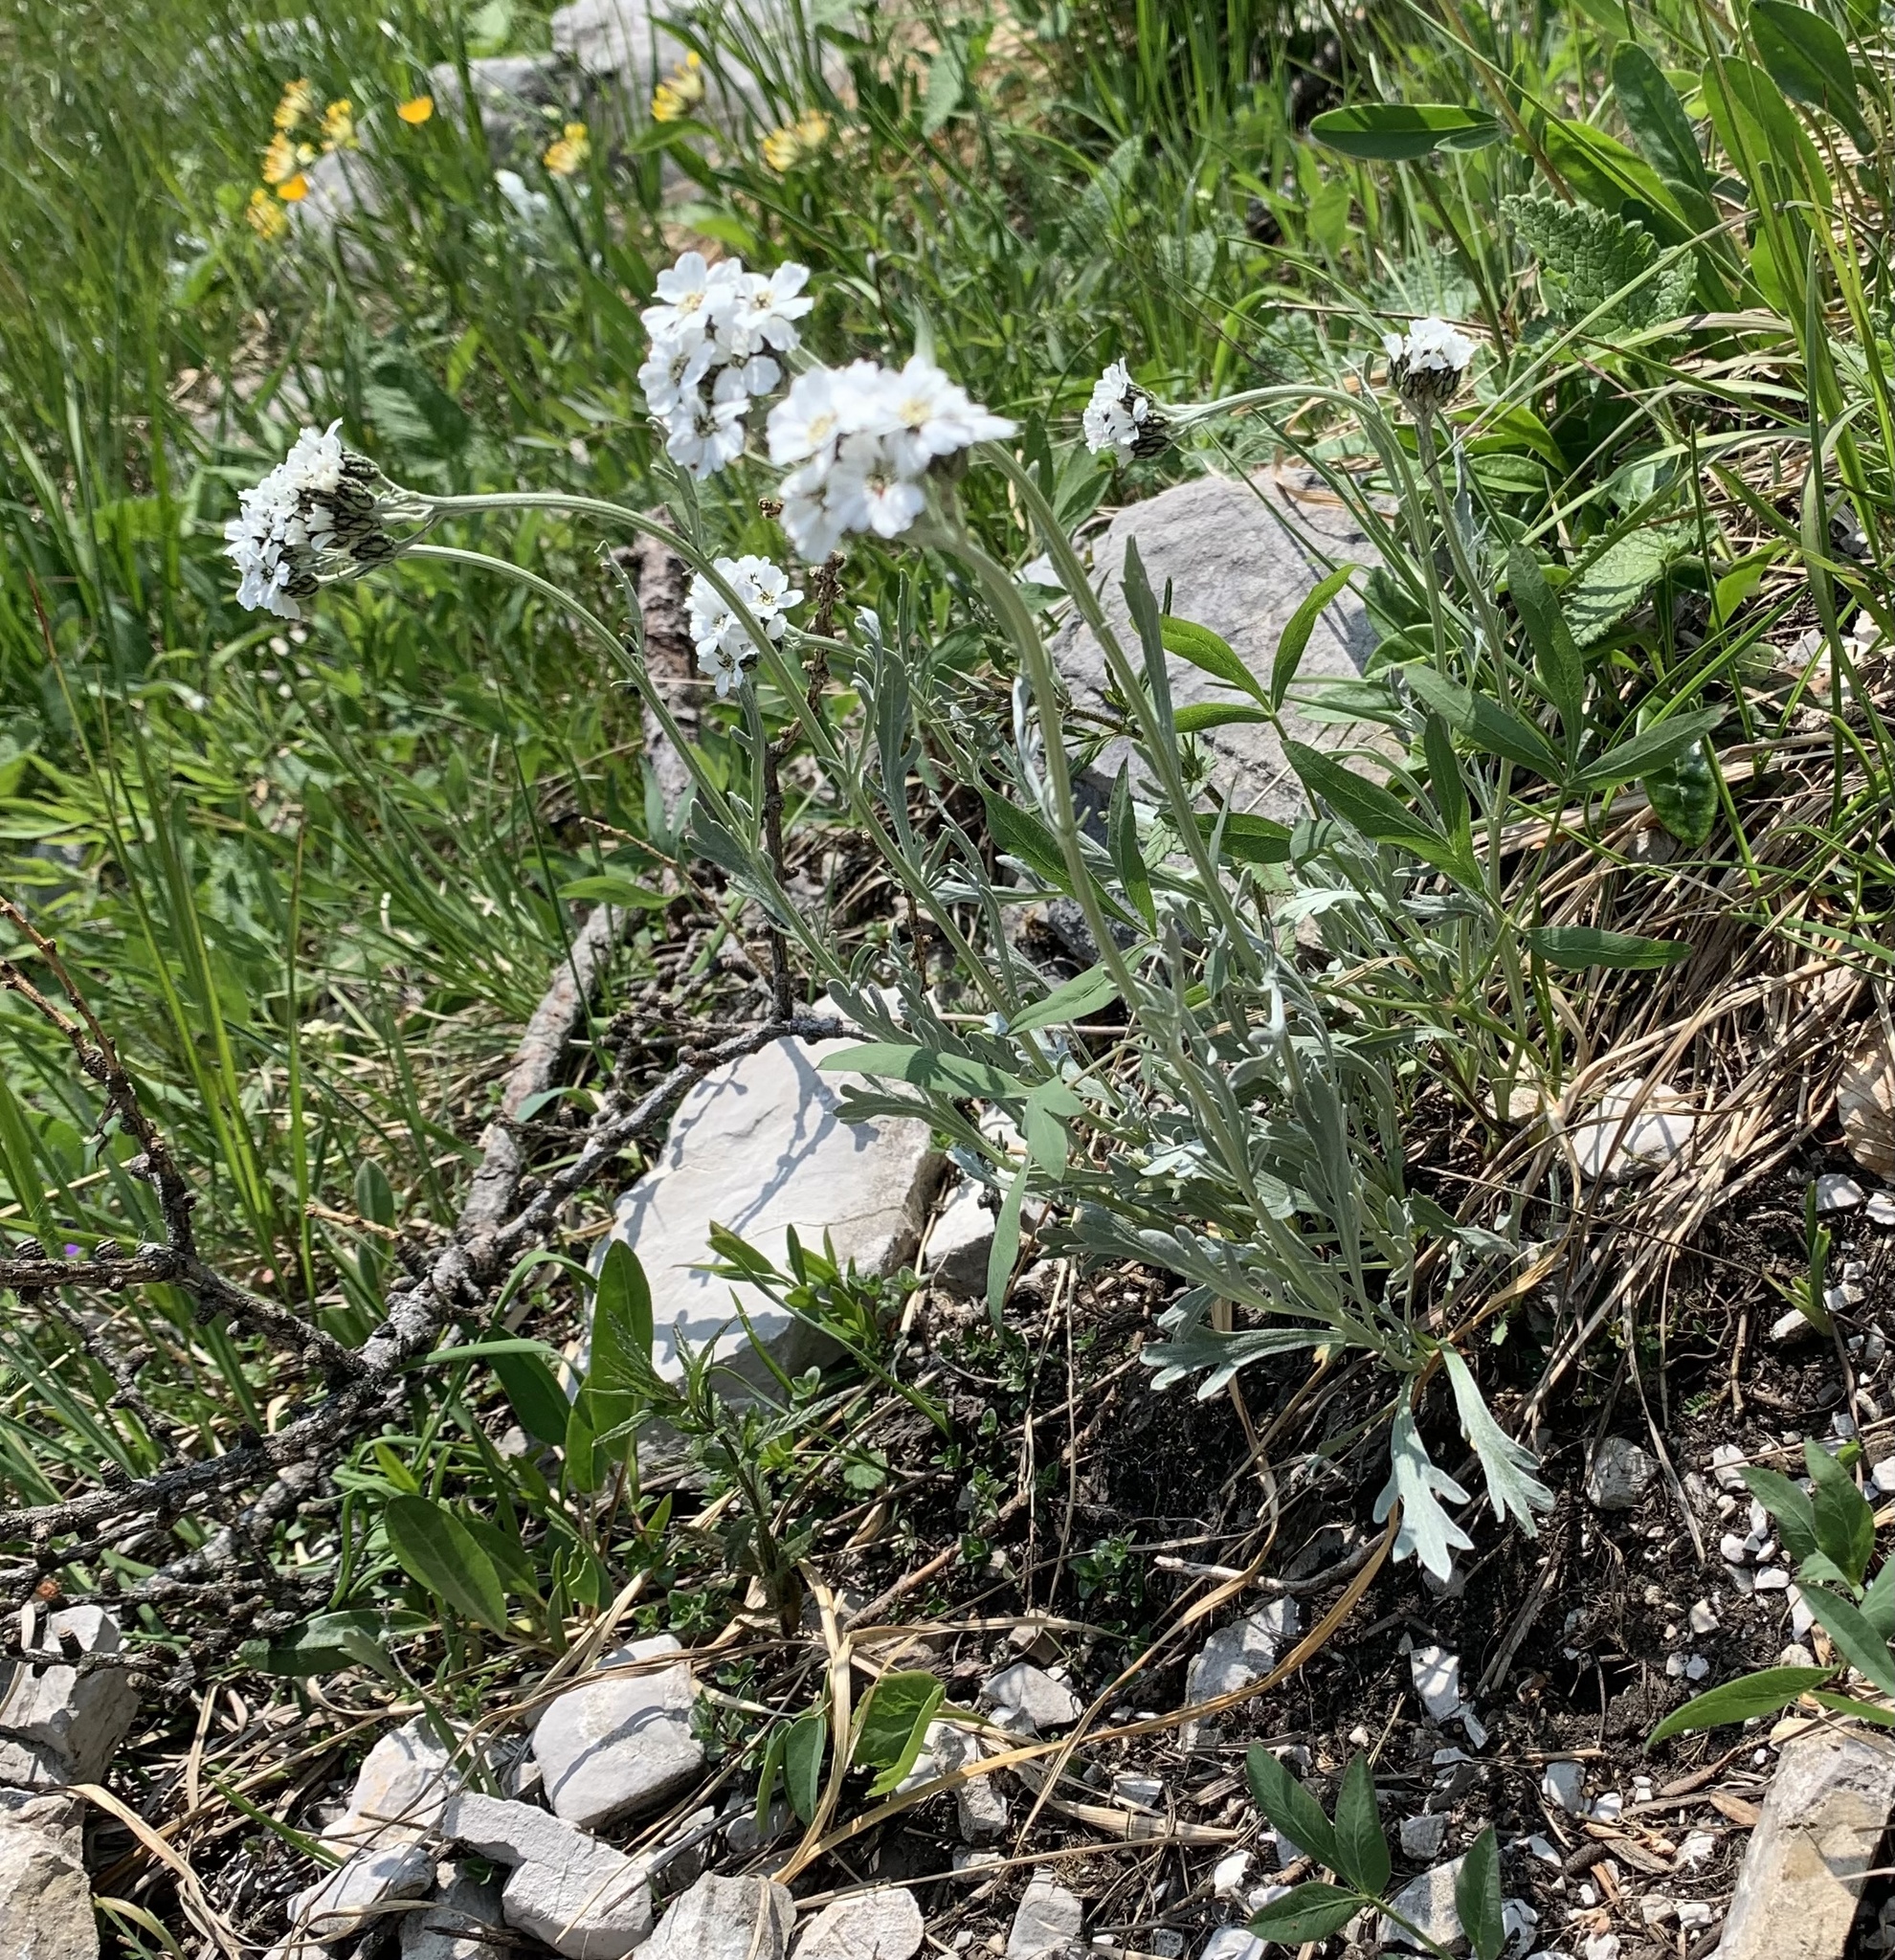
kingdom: Plantae
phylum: Tracheophyta
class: Magnoliopsida
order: Asterales
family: Asteraceae
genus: Achillea
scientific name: Achillea clavennae
